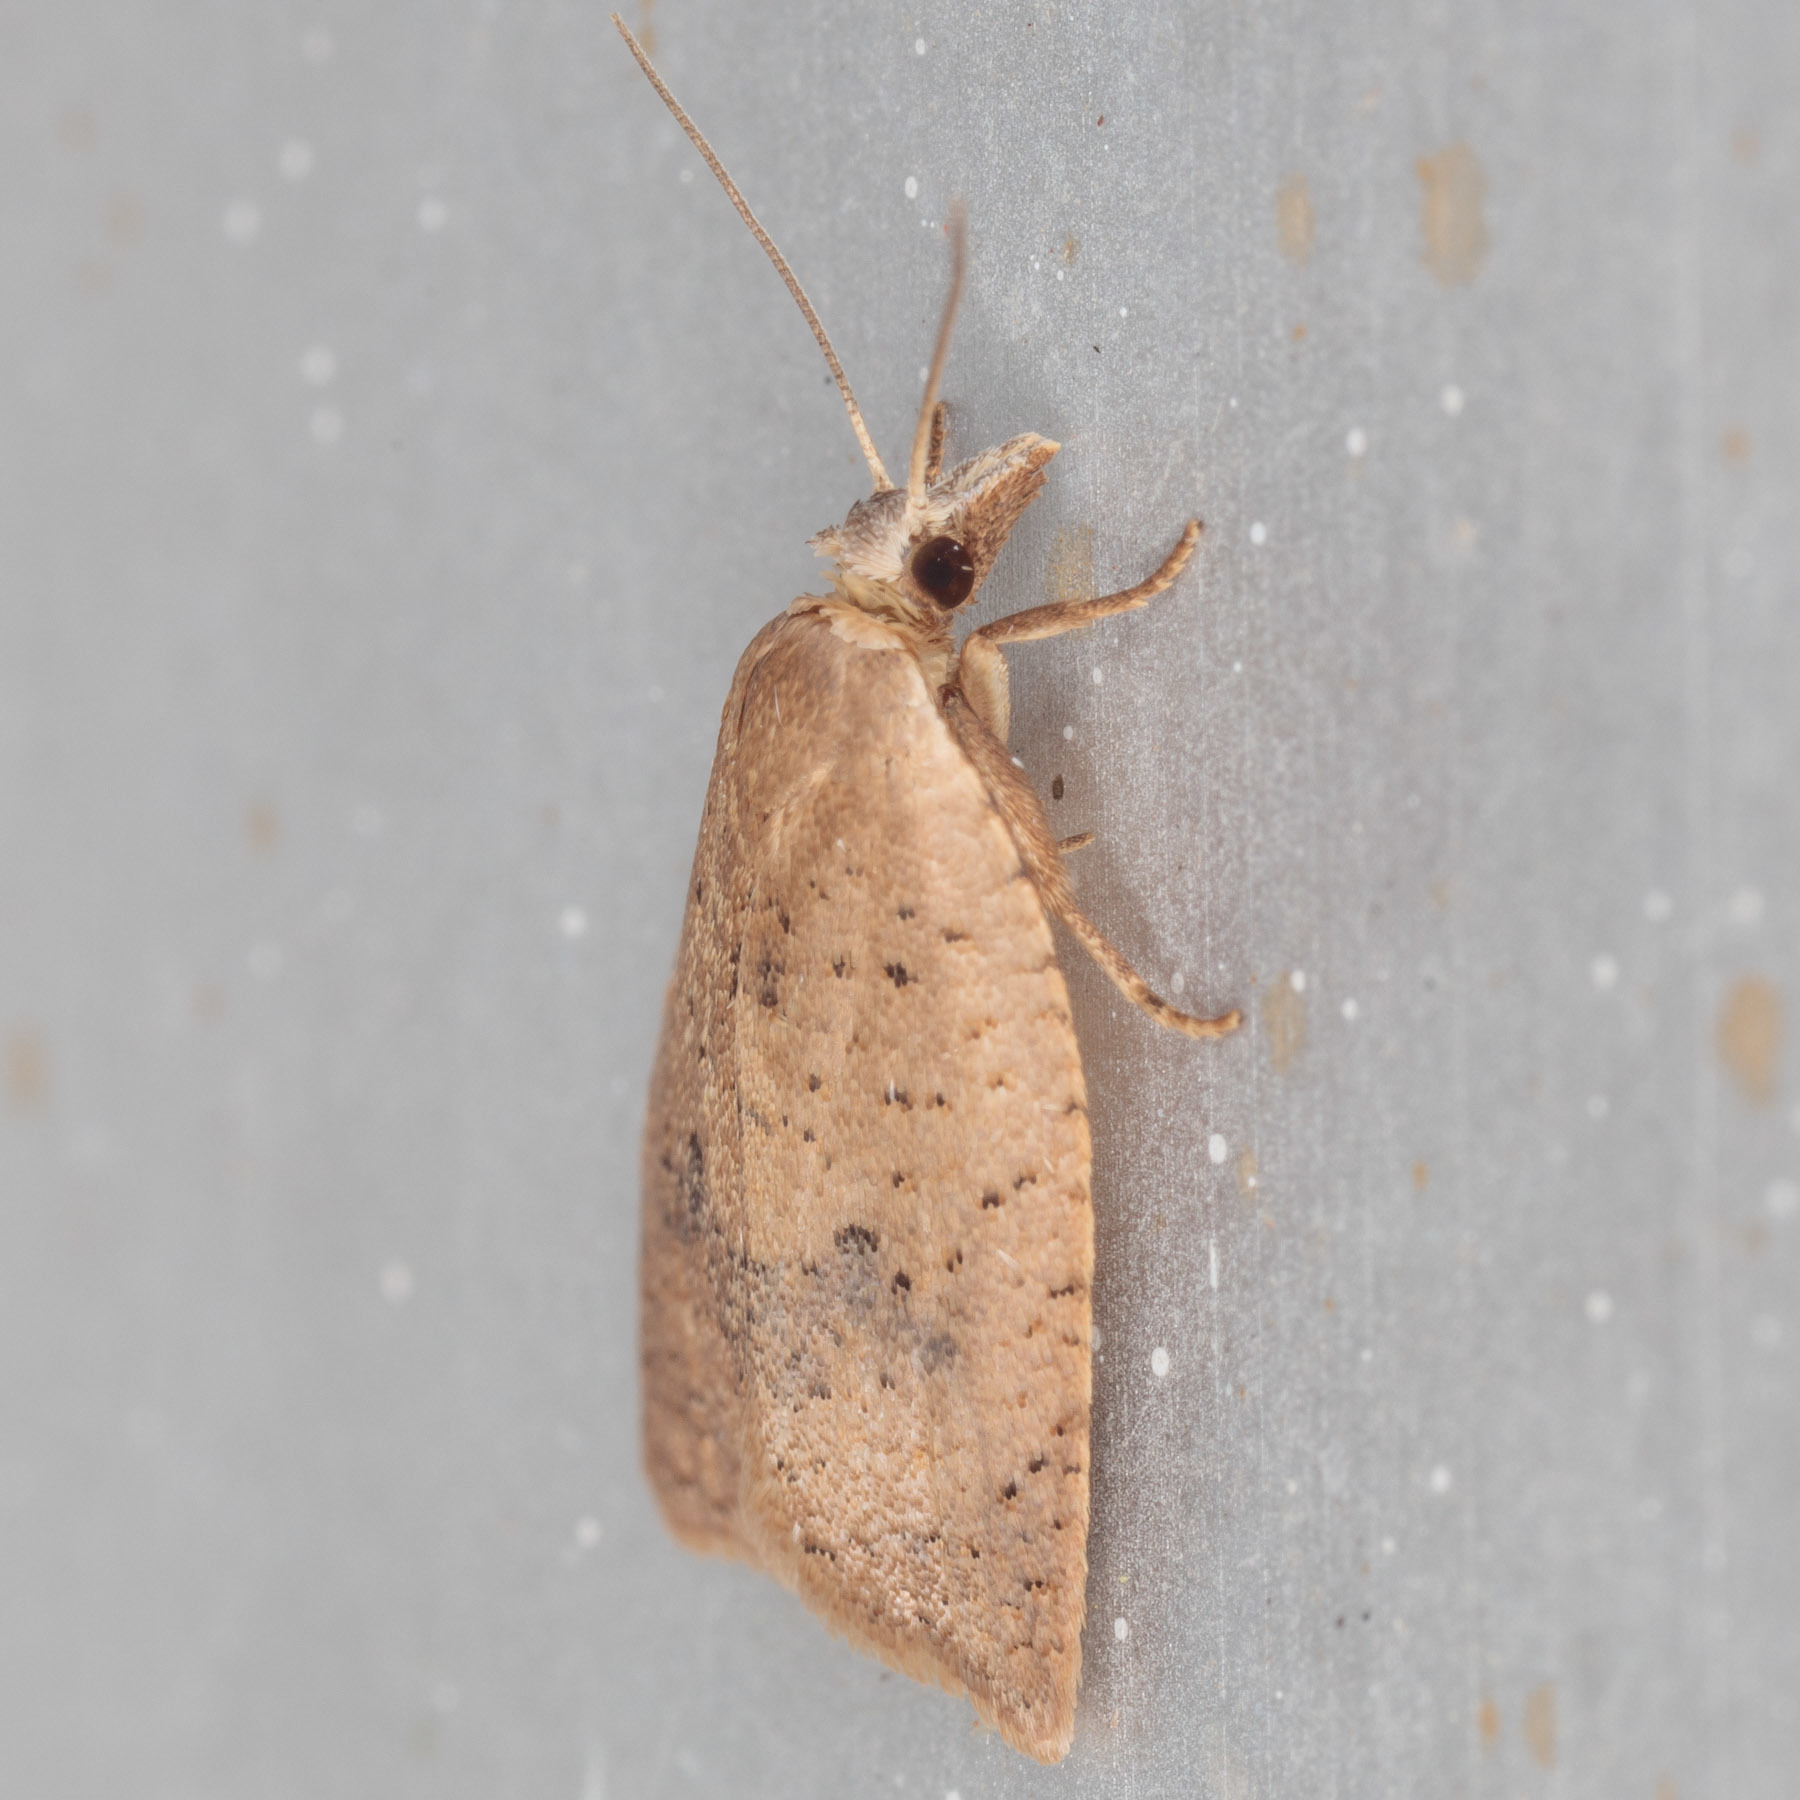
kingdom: Animalia
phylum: Arthropoda
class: Insecta
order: Lepidoptera
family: Tortricidae
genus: Sparganothoides
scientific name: Sparganothoides lentiginosana
